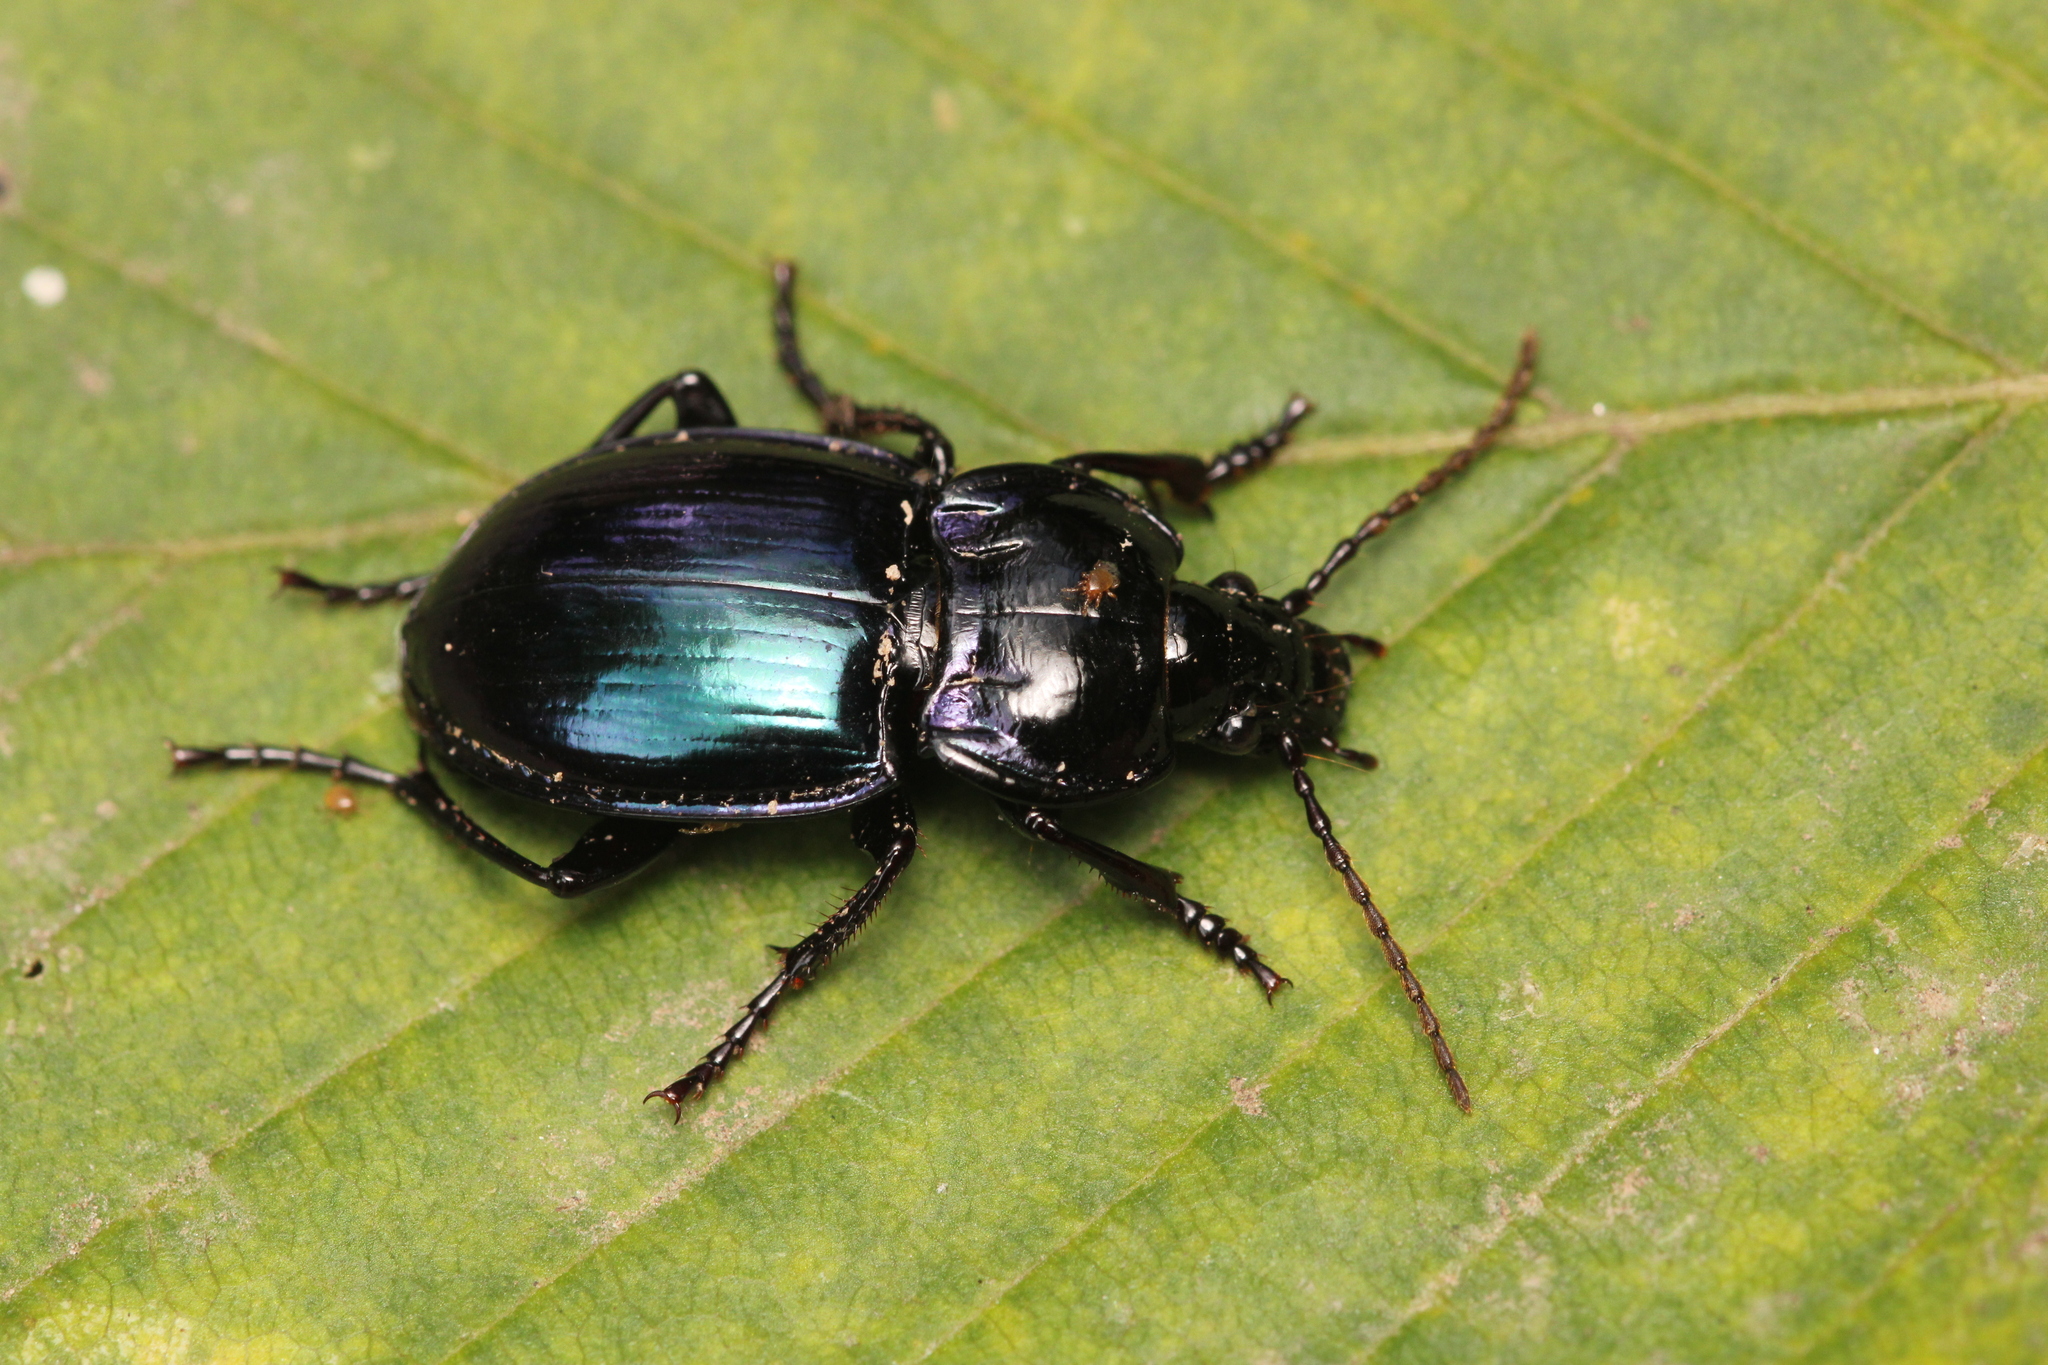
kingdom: Animalia
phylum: Arthropoda
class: Insecta
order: Coleoptera
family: Carabidae
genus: Myas
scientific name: Myas chalybaeus
